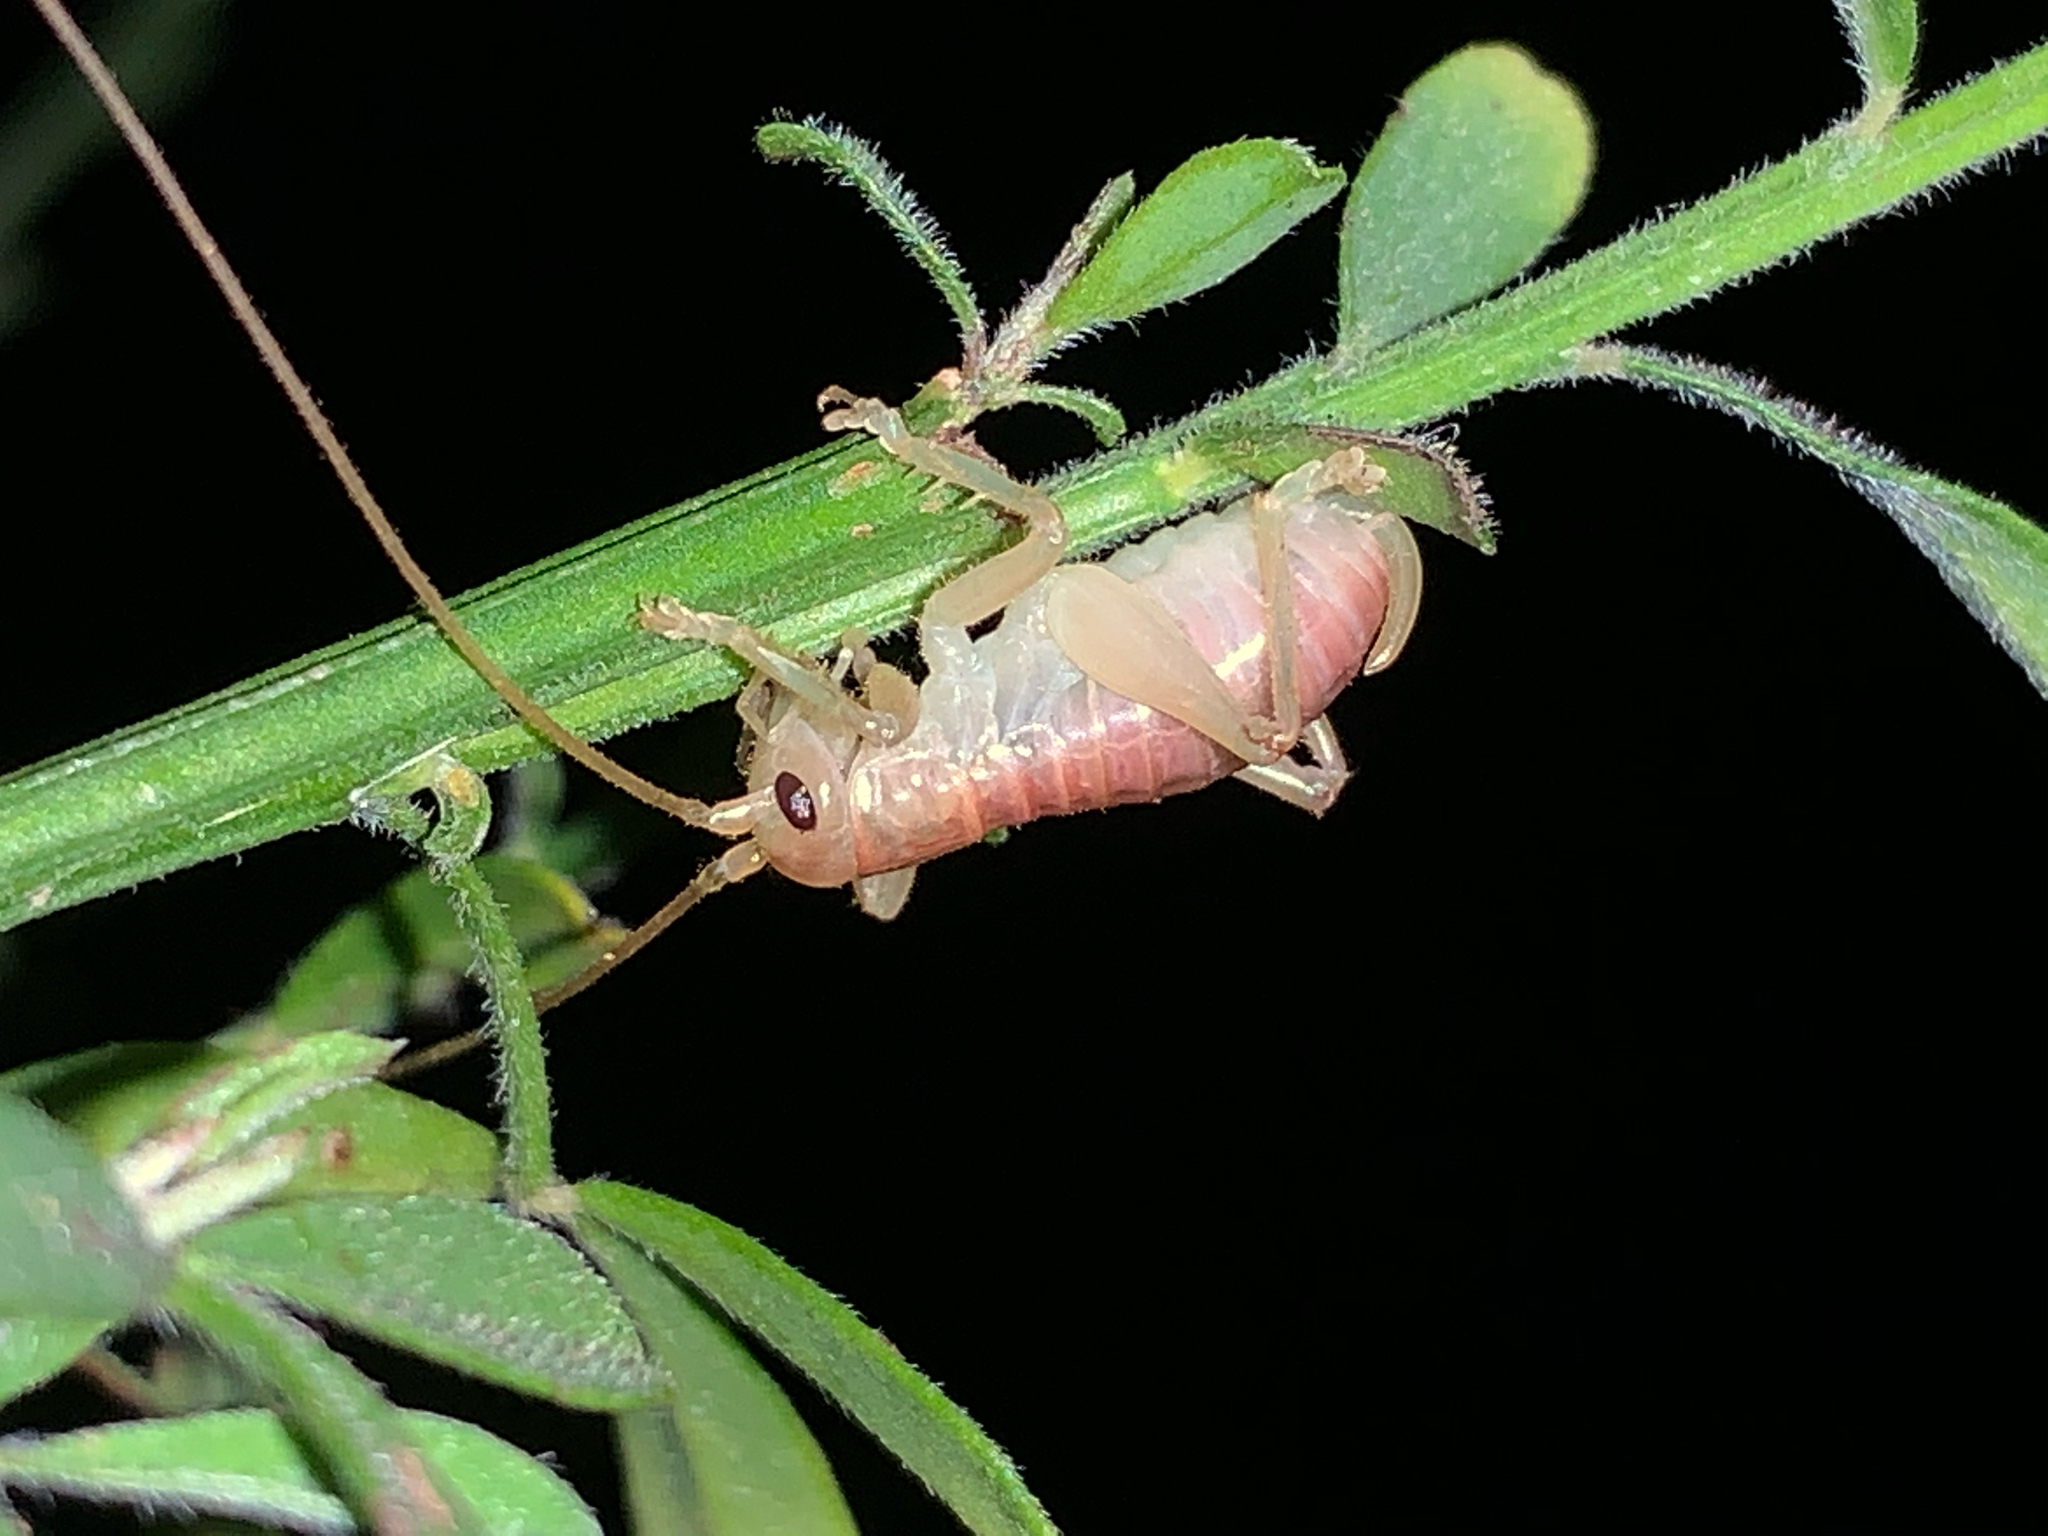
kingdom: Animalia
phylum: Arthropoda
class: Insecta
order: Orthoptera
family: Gryllacrididae
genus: Camptonotus
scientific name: Camptonotus carolinensis
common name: Carolina leaf-roller
